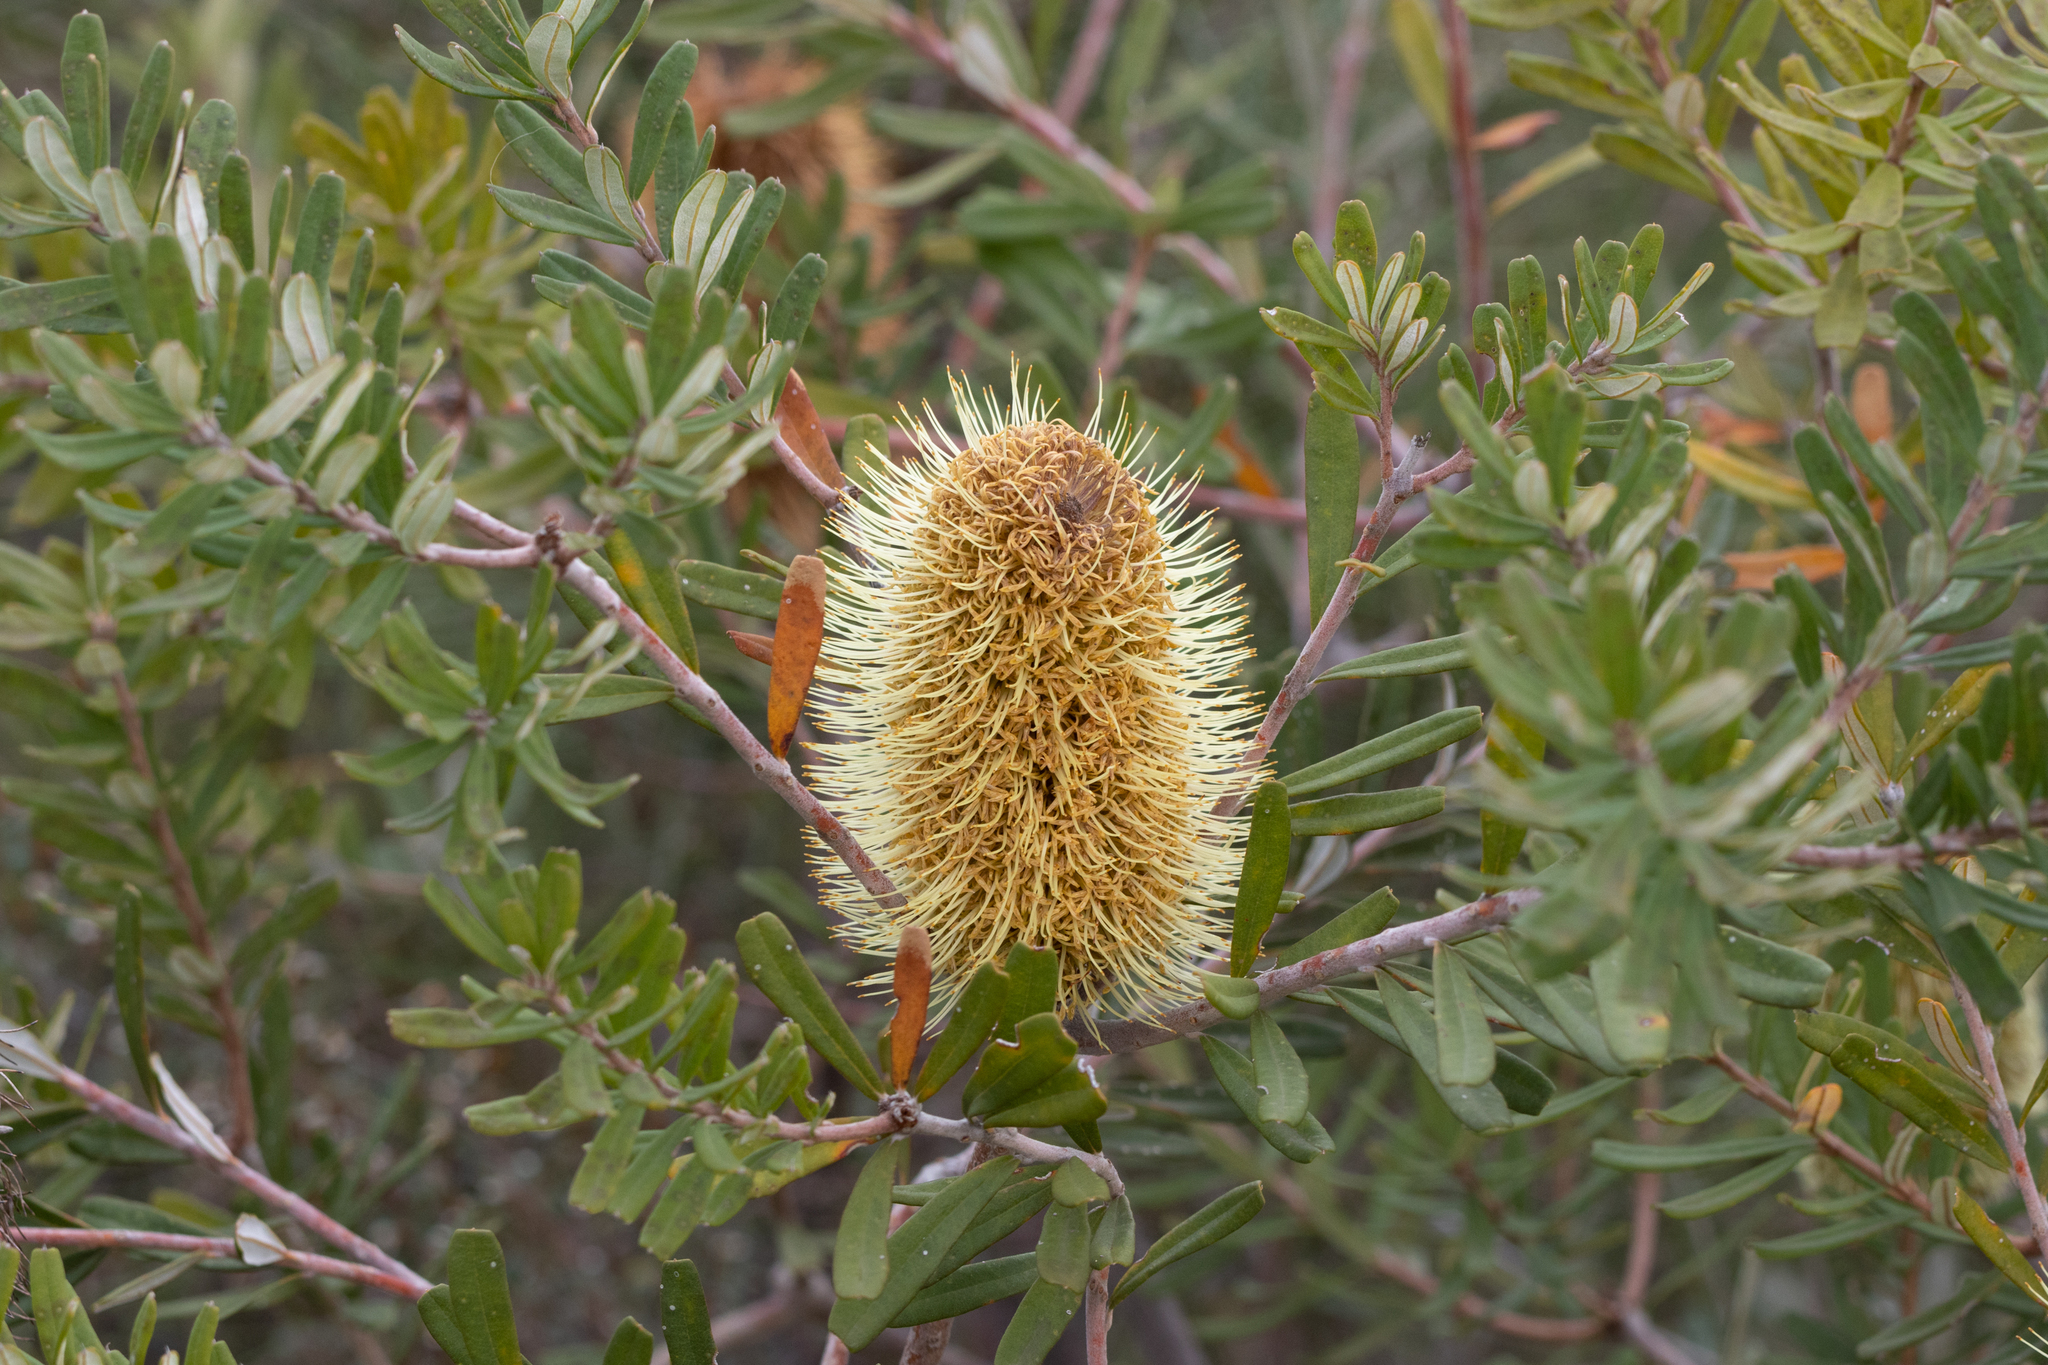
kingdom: Plantae
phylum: Tracheophyta
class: Magnoliopsida
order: Proteales
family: Proteaceae
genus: Banksia
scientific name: Banksia marginata
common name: Silver banksia
